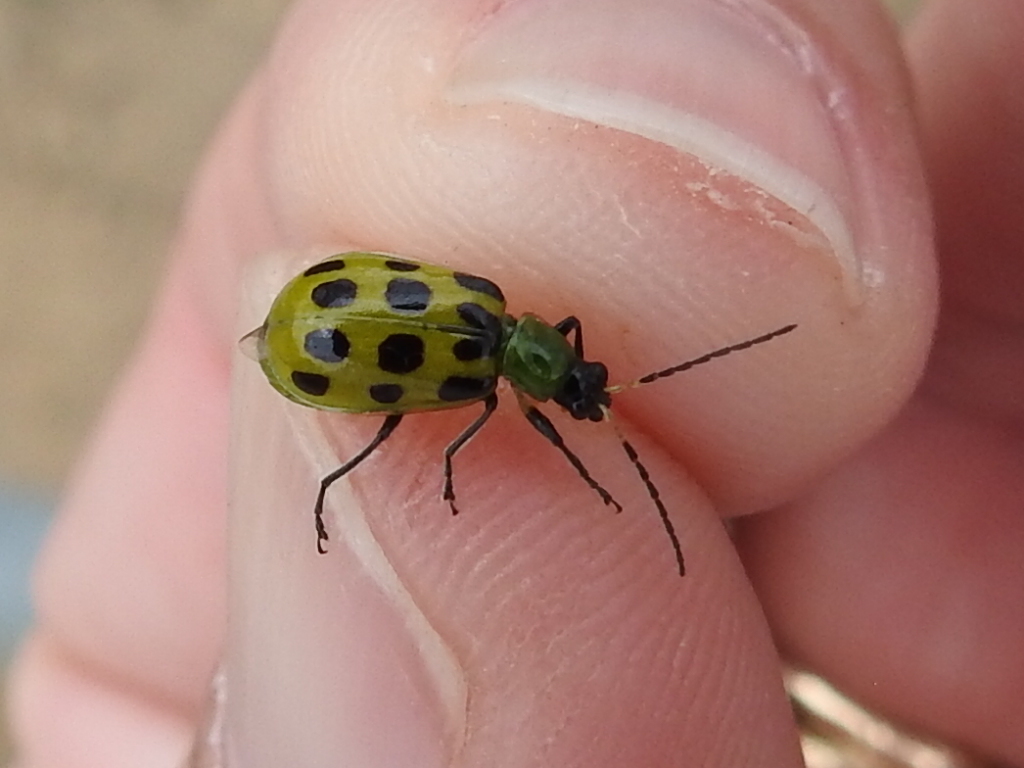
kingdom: Animalia
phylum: Arthropoda
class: Insecta
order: Coleoptera
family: Chrysomelidae
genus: Diabrotica
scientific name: Diabrotica undecimpunctata
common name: Spotted cucumber beetle
